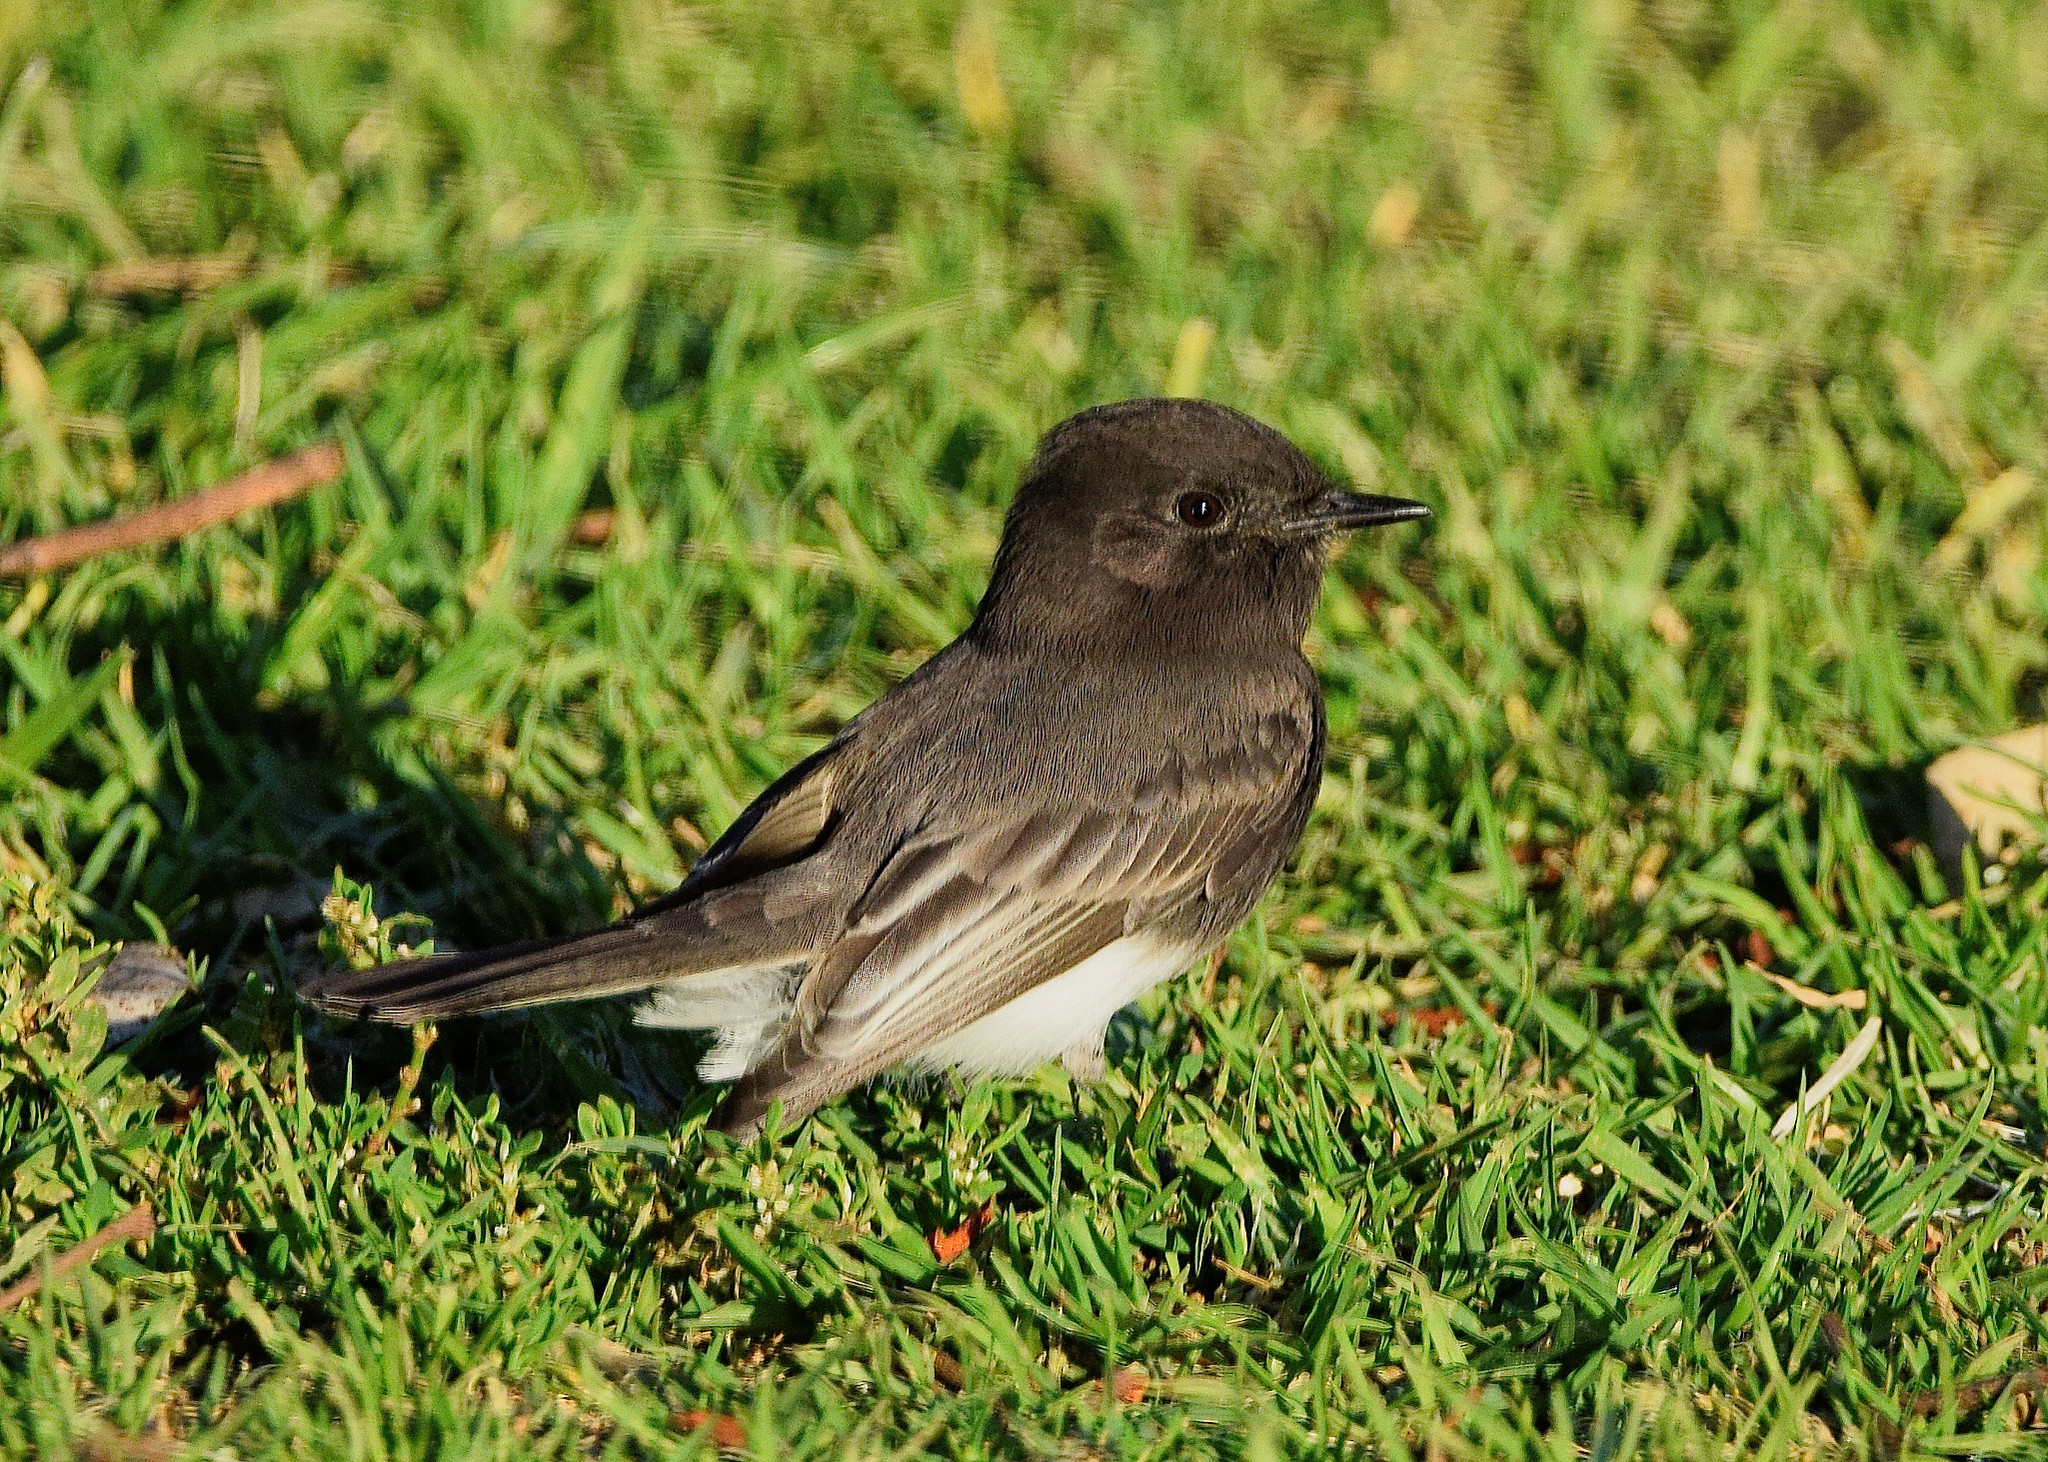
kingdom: Animalia
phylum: Chordata
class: Aves
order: Passeriformes
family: Tyrannidae
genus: Sayornis
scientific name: Sayornis nigricans
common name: Black phoebe
